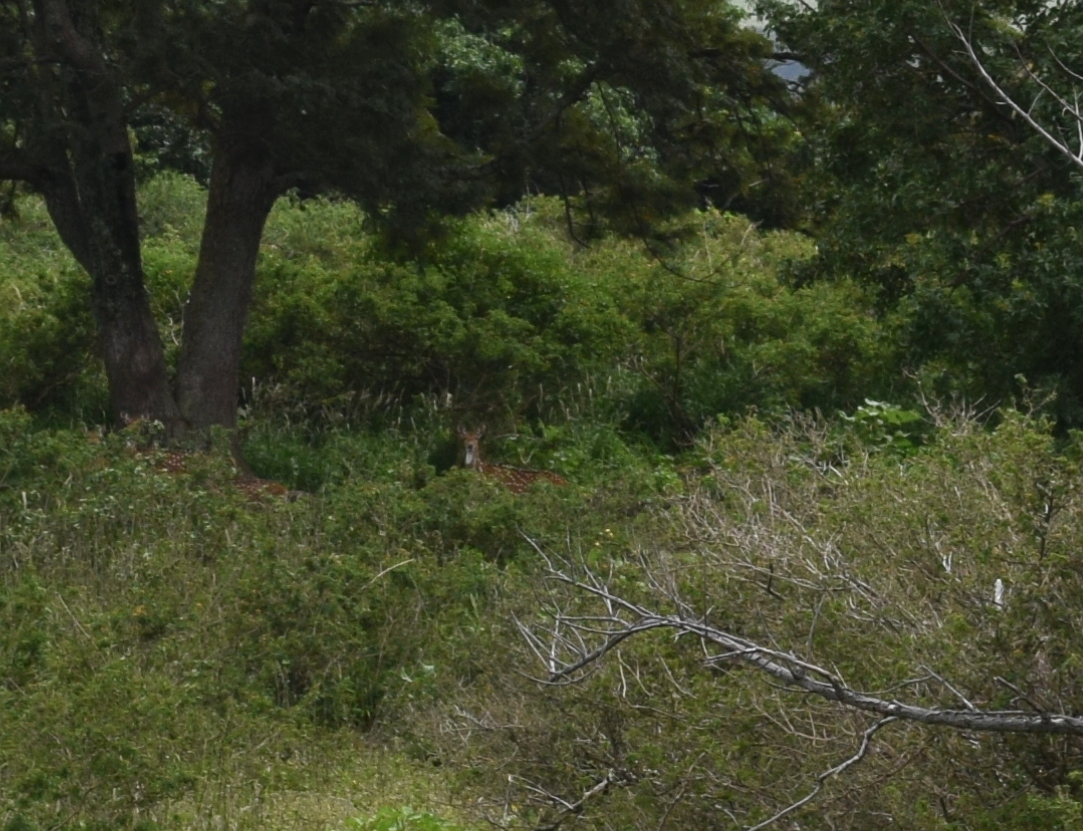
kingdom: Animalia
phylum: Chordata
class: Mammalia
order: Artiodactyla
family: Cervidae
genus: Axis
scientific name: Axis axis
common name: Chital
